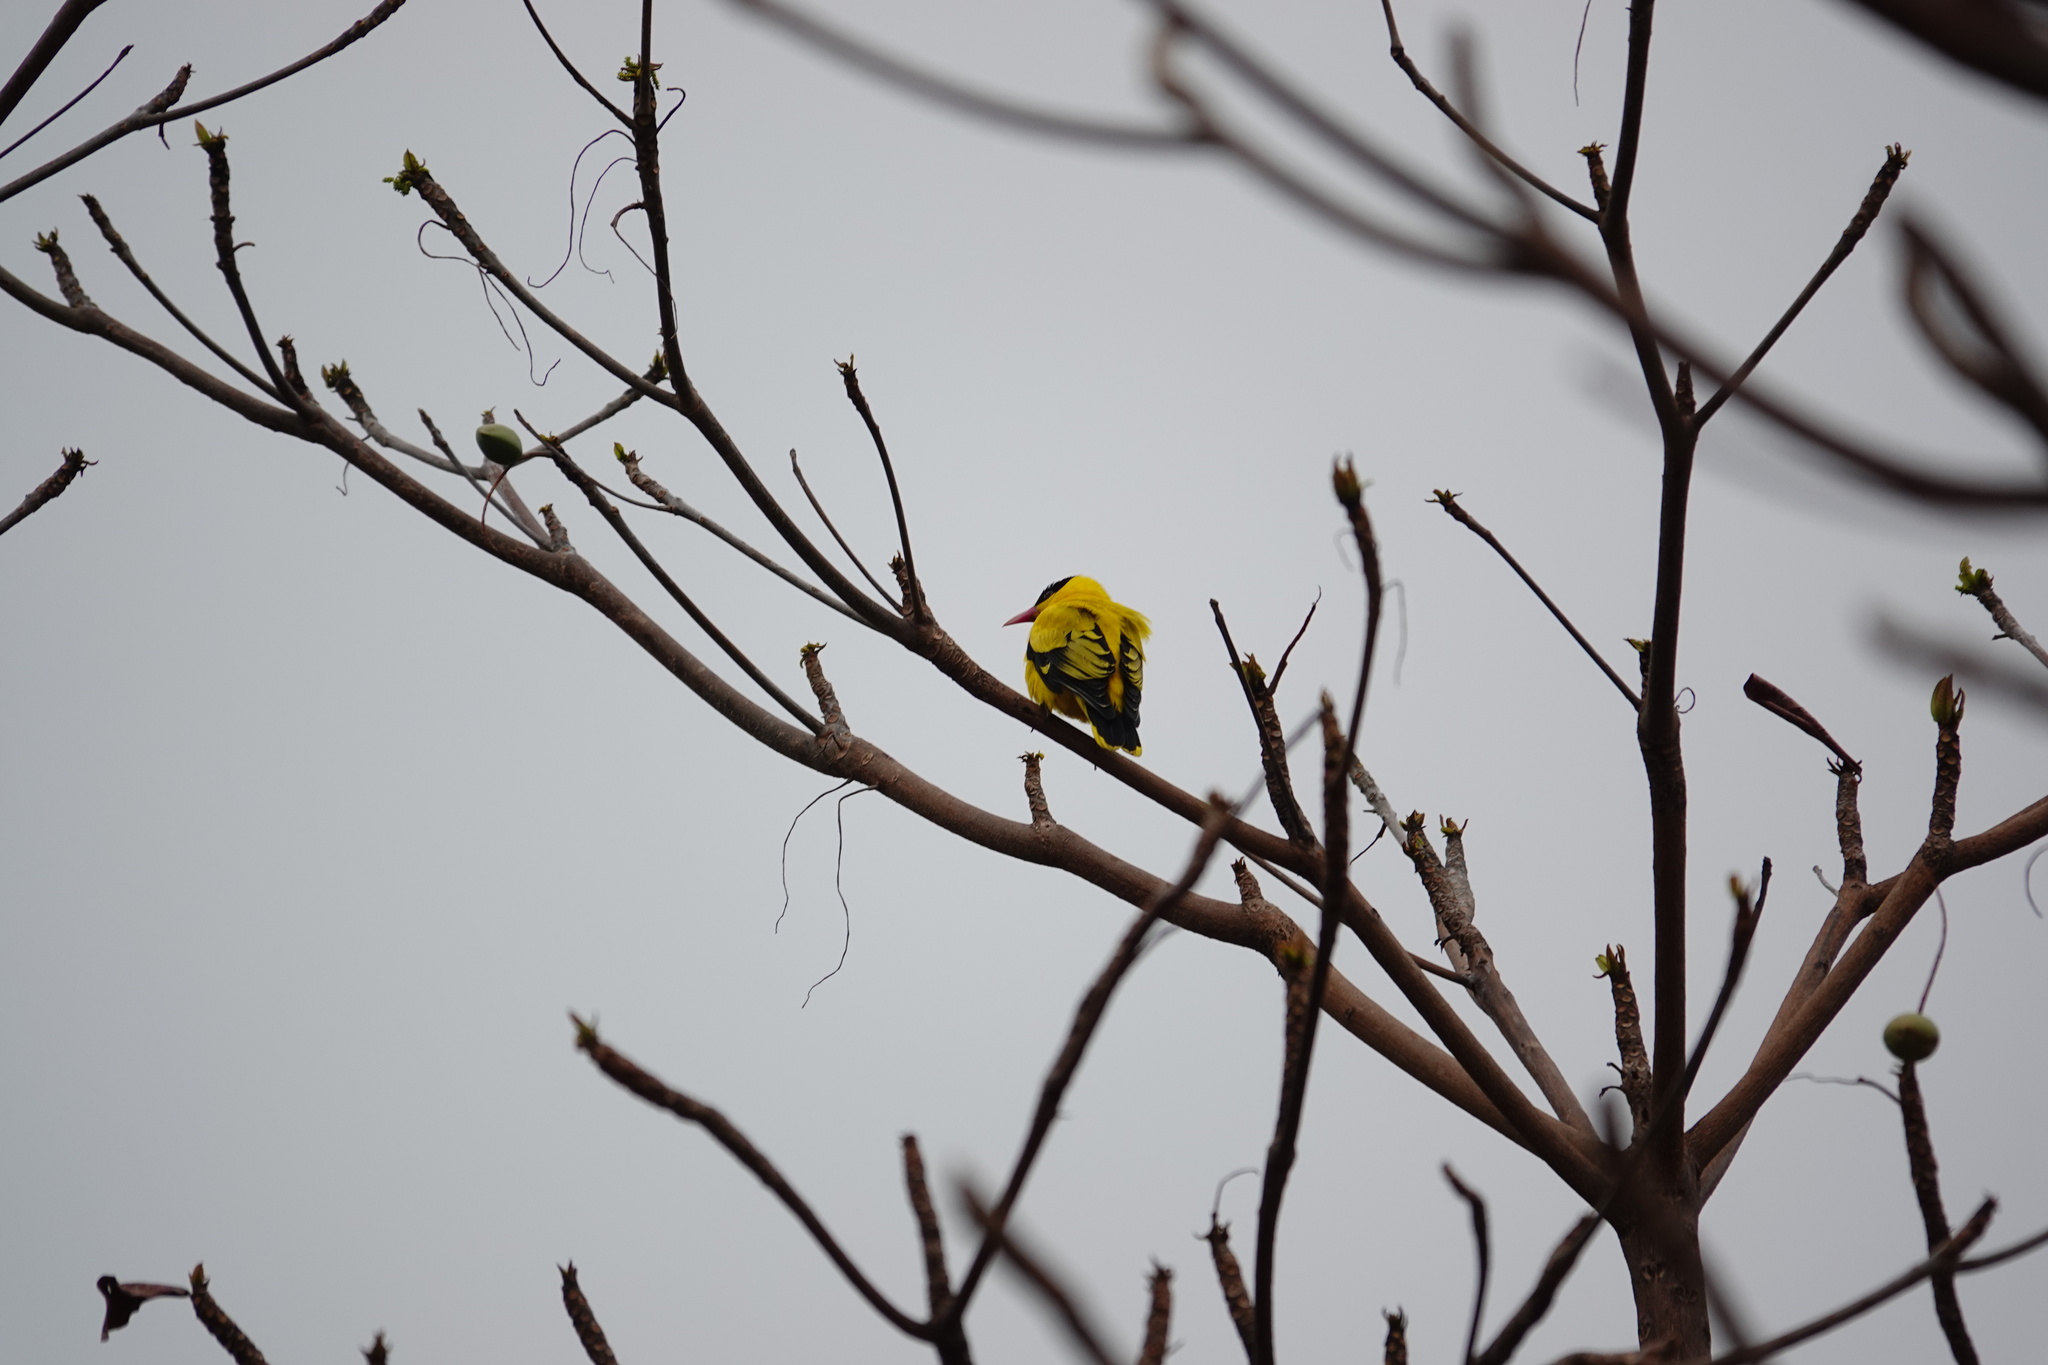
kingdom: Animalia
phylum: Chordata
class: Aves
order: Passeriformes
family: Oriolidae
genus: Oriolus
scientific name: Oriolus chinensis
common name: Black-naped oriole
